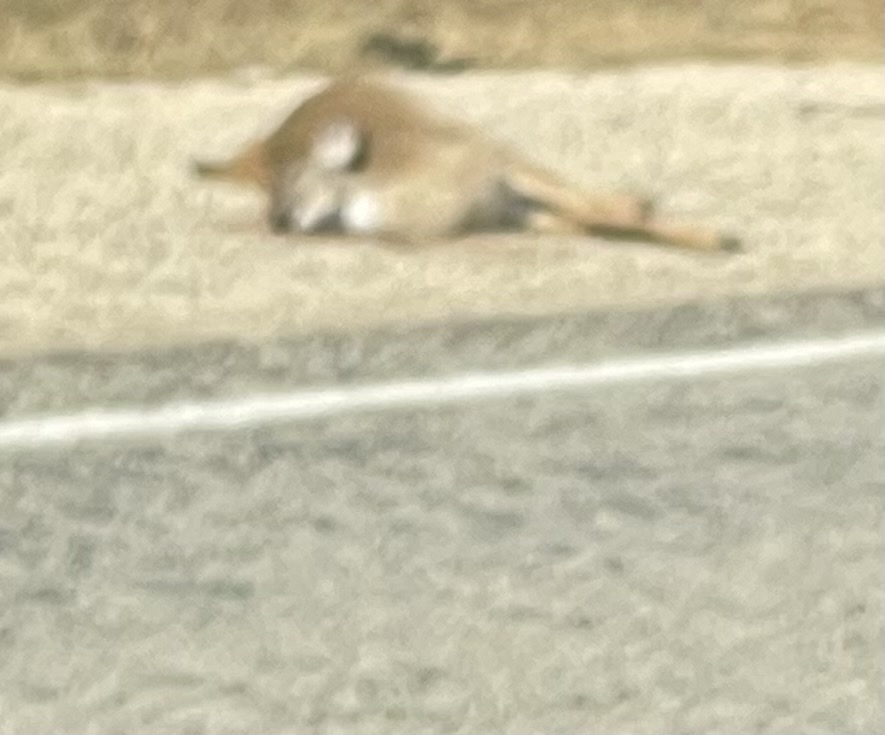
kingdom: Animalia
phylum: Chordata
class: Mammalia
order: Artiodactyla
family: Cervidae
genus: Odocoileus
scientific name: Odocoileus virginianus
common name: White-tailed deer
